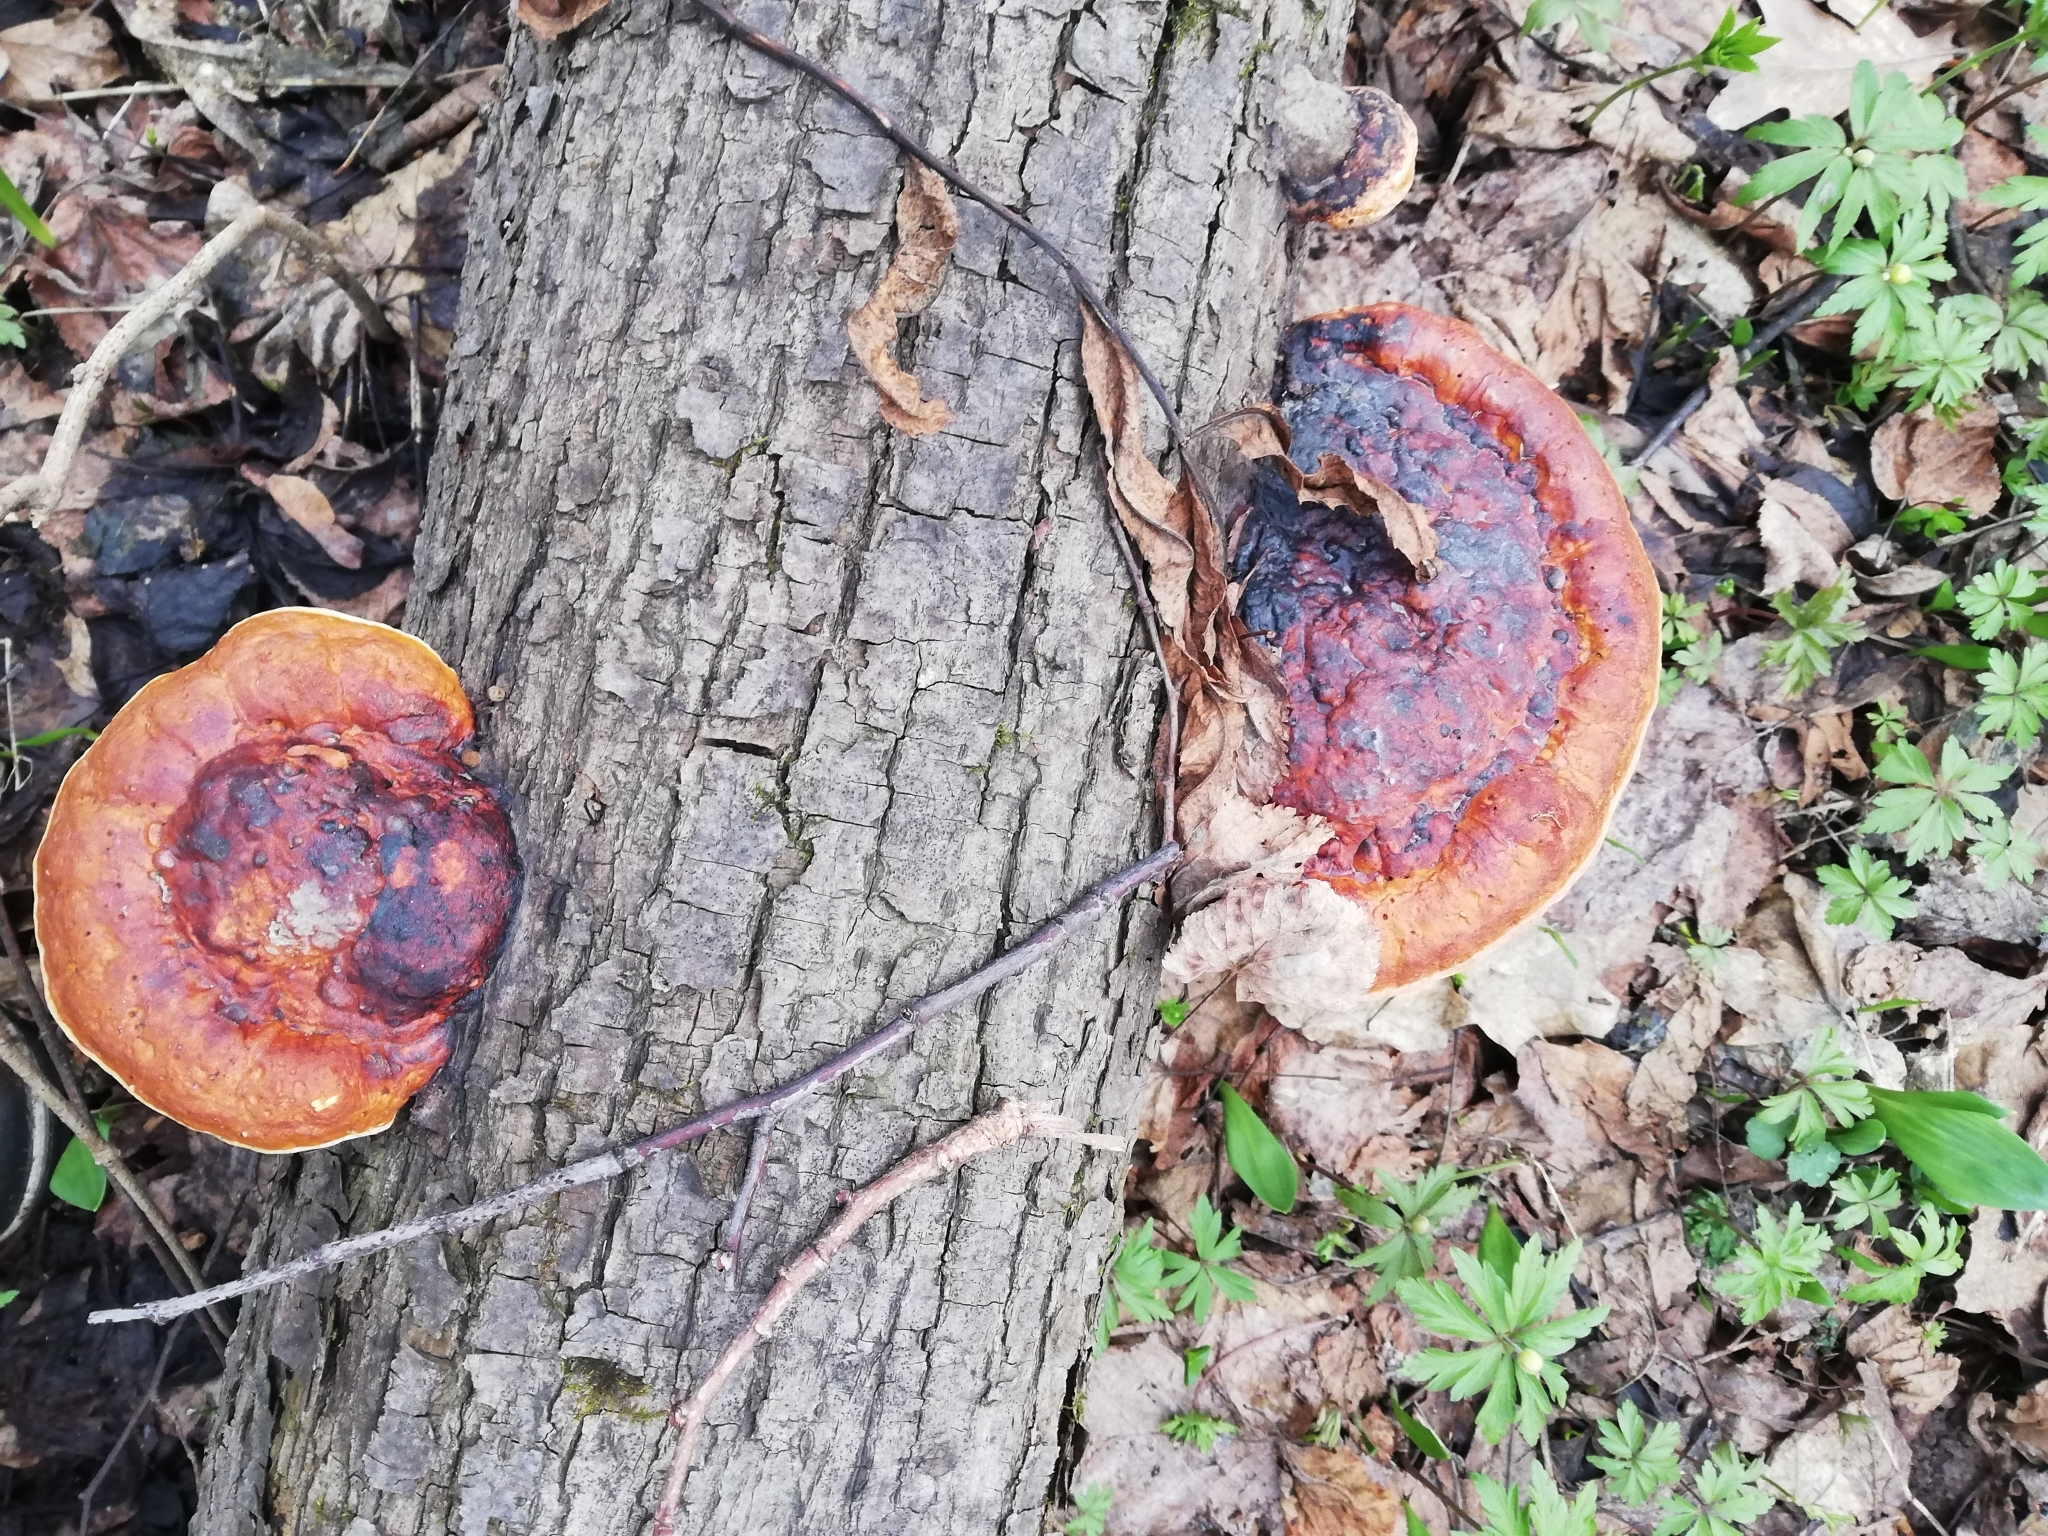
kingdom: Fungi
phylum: Basidiomycota
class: Agaricomycetes
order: Polyporales
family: Fomitopsidaceae
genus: Fomitopsis
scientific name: Fomitopsis pinicola
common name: Red-belted bracket
